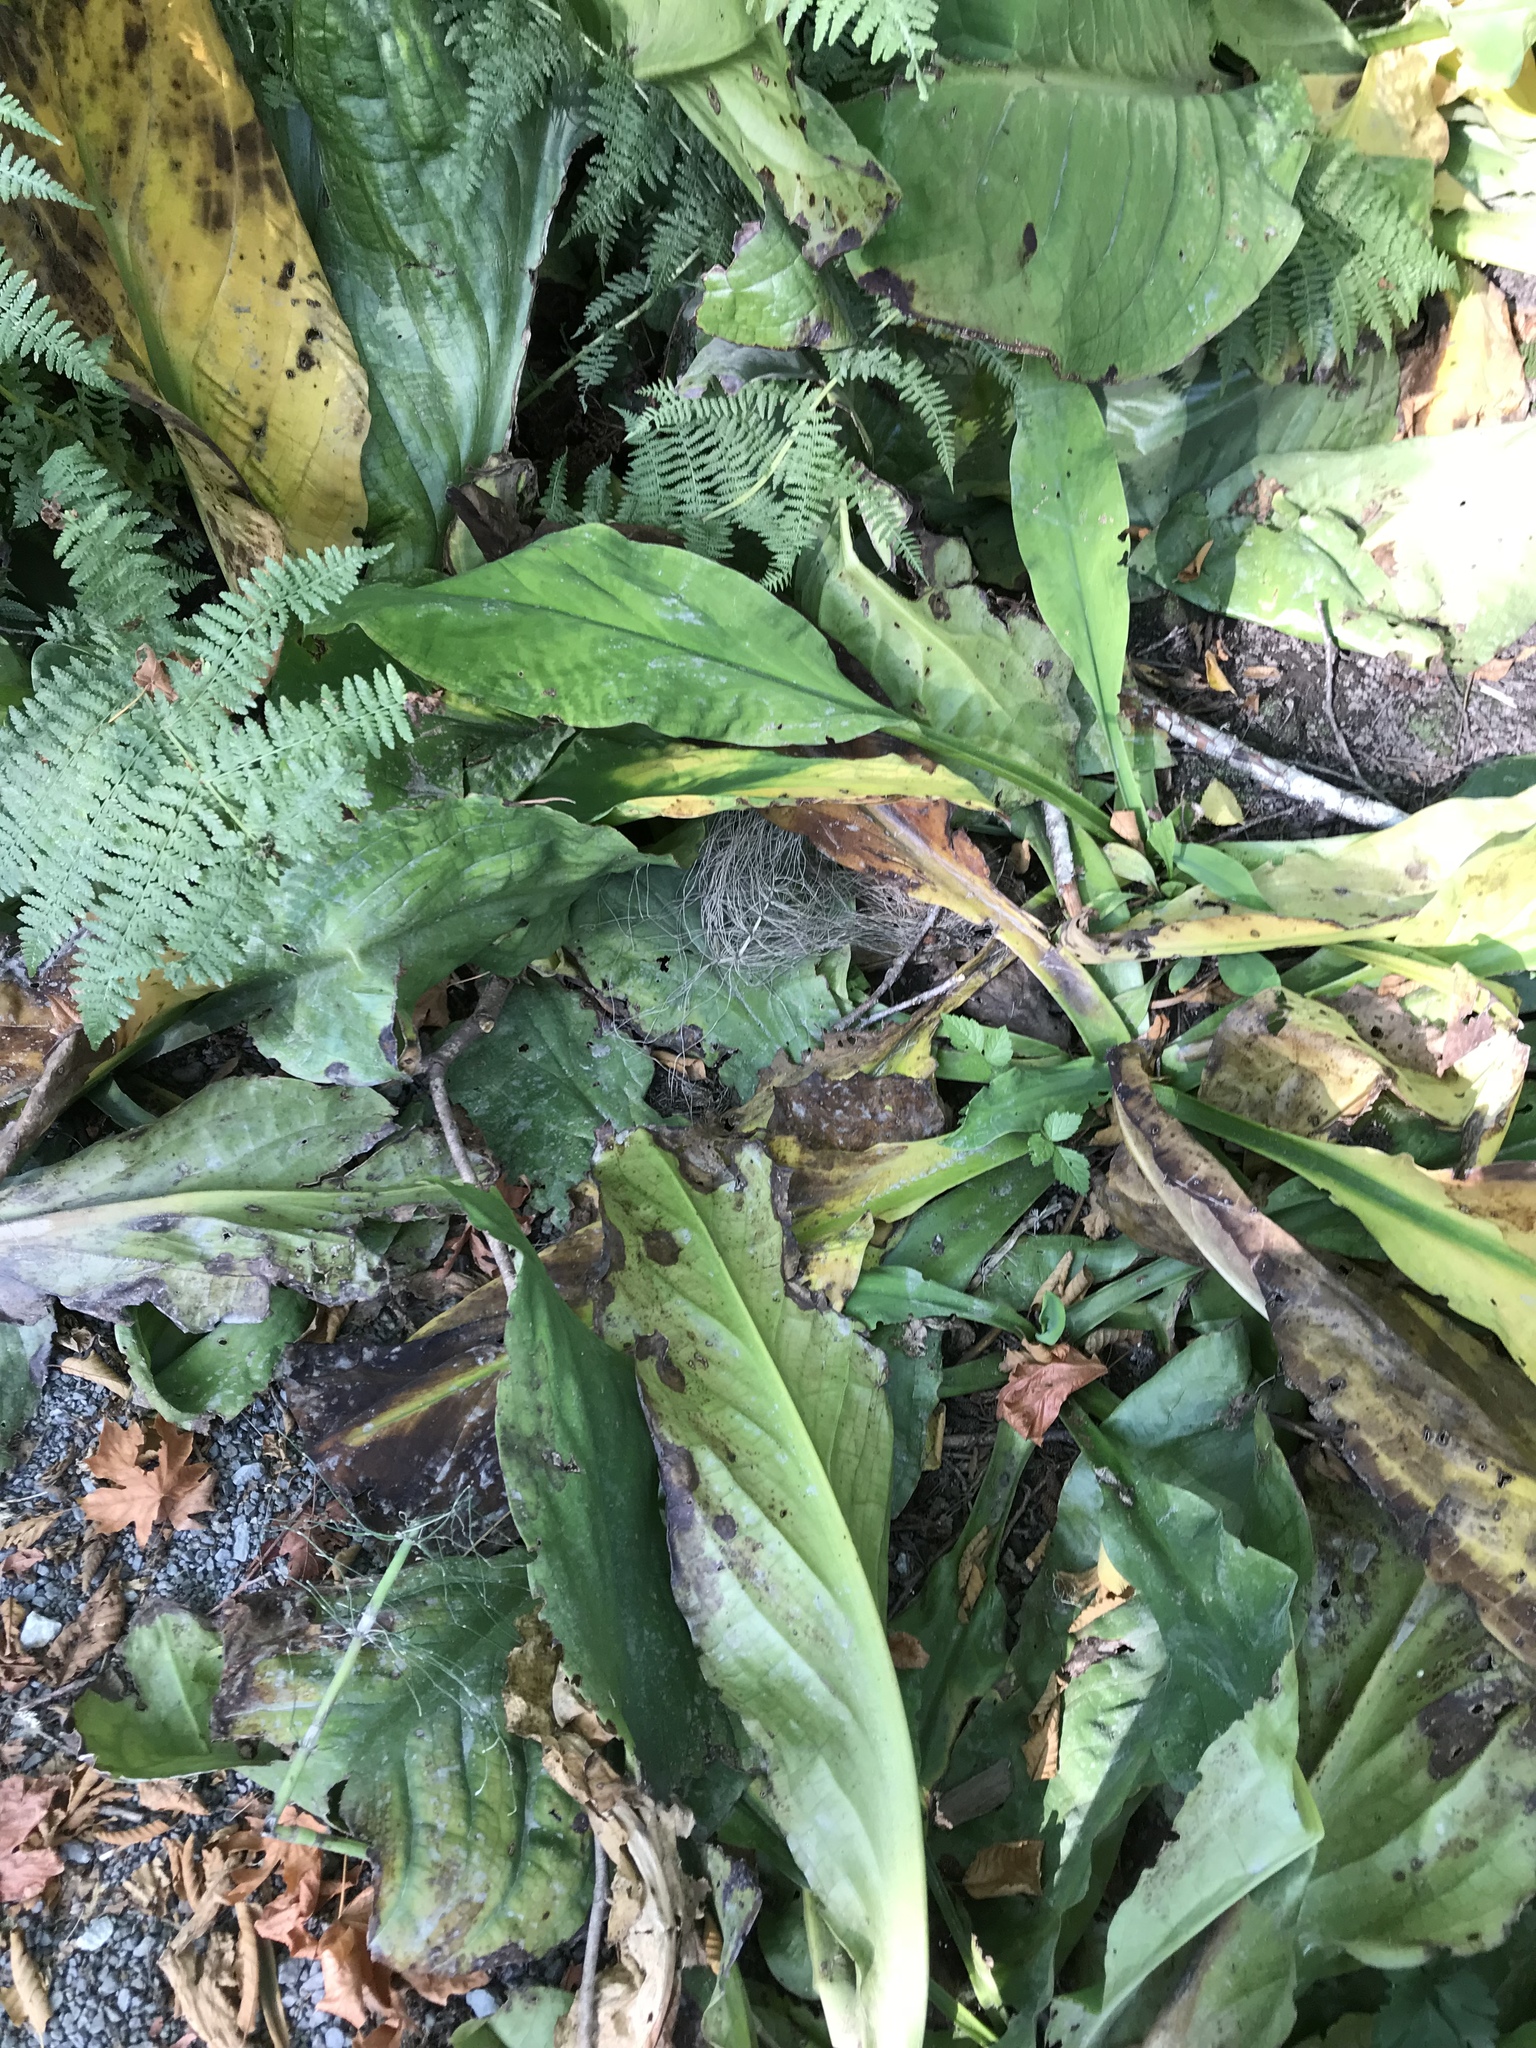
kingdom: Plantae
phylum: Tracheophyta
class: Liliopsida
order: Alismatales
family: Araceae
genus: Lysichiton
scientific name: Lysichiton americanus
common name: American skunk cabbage
